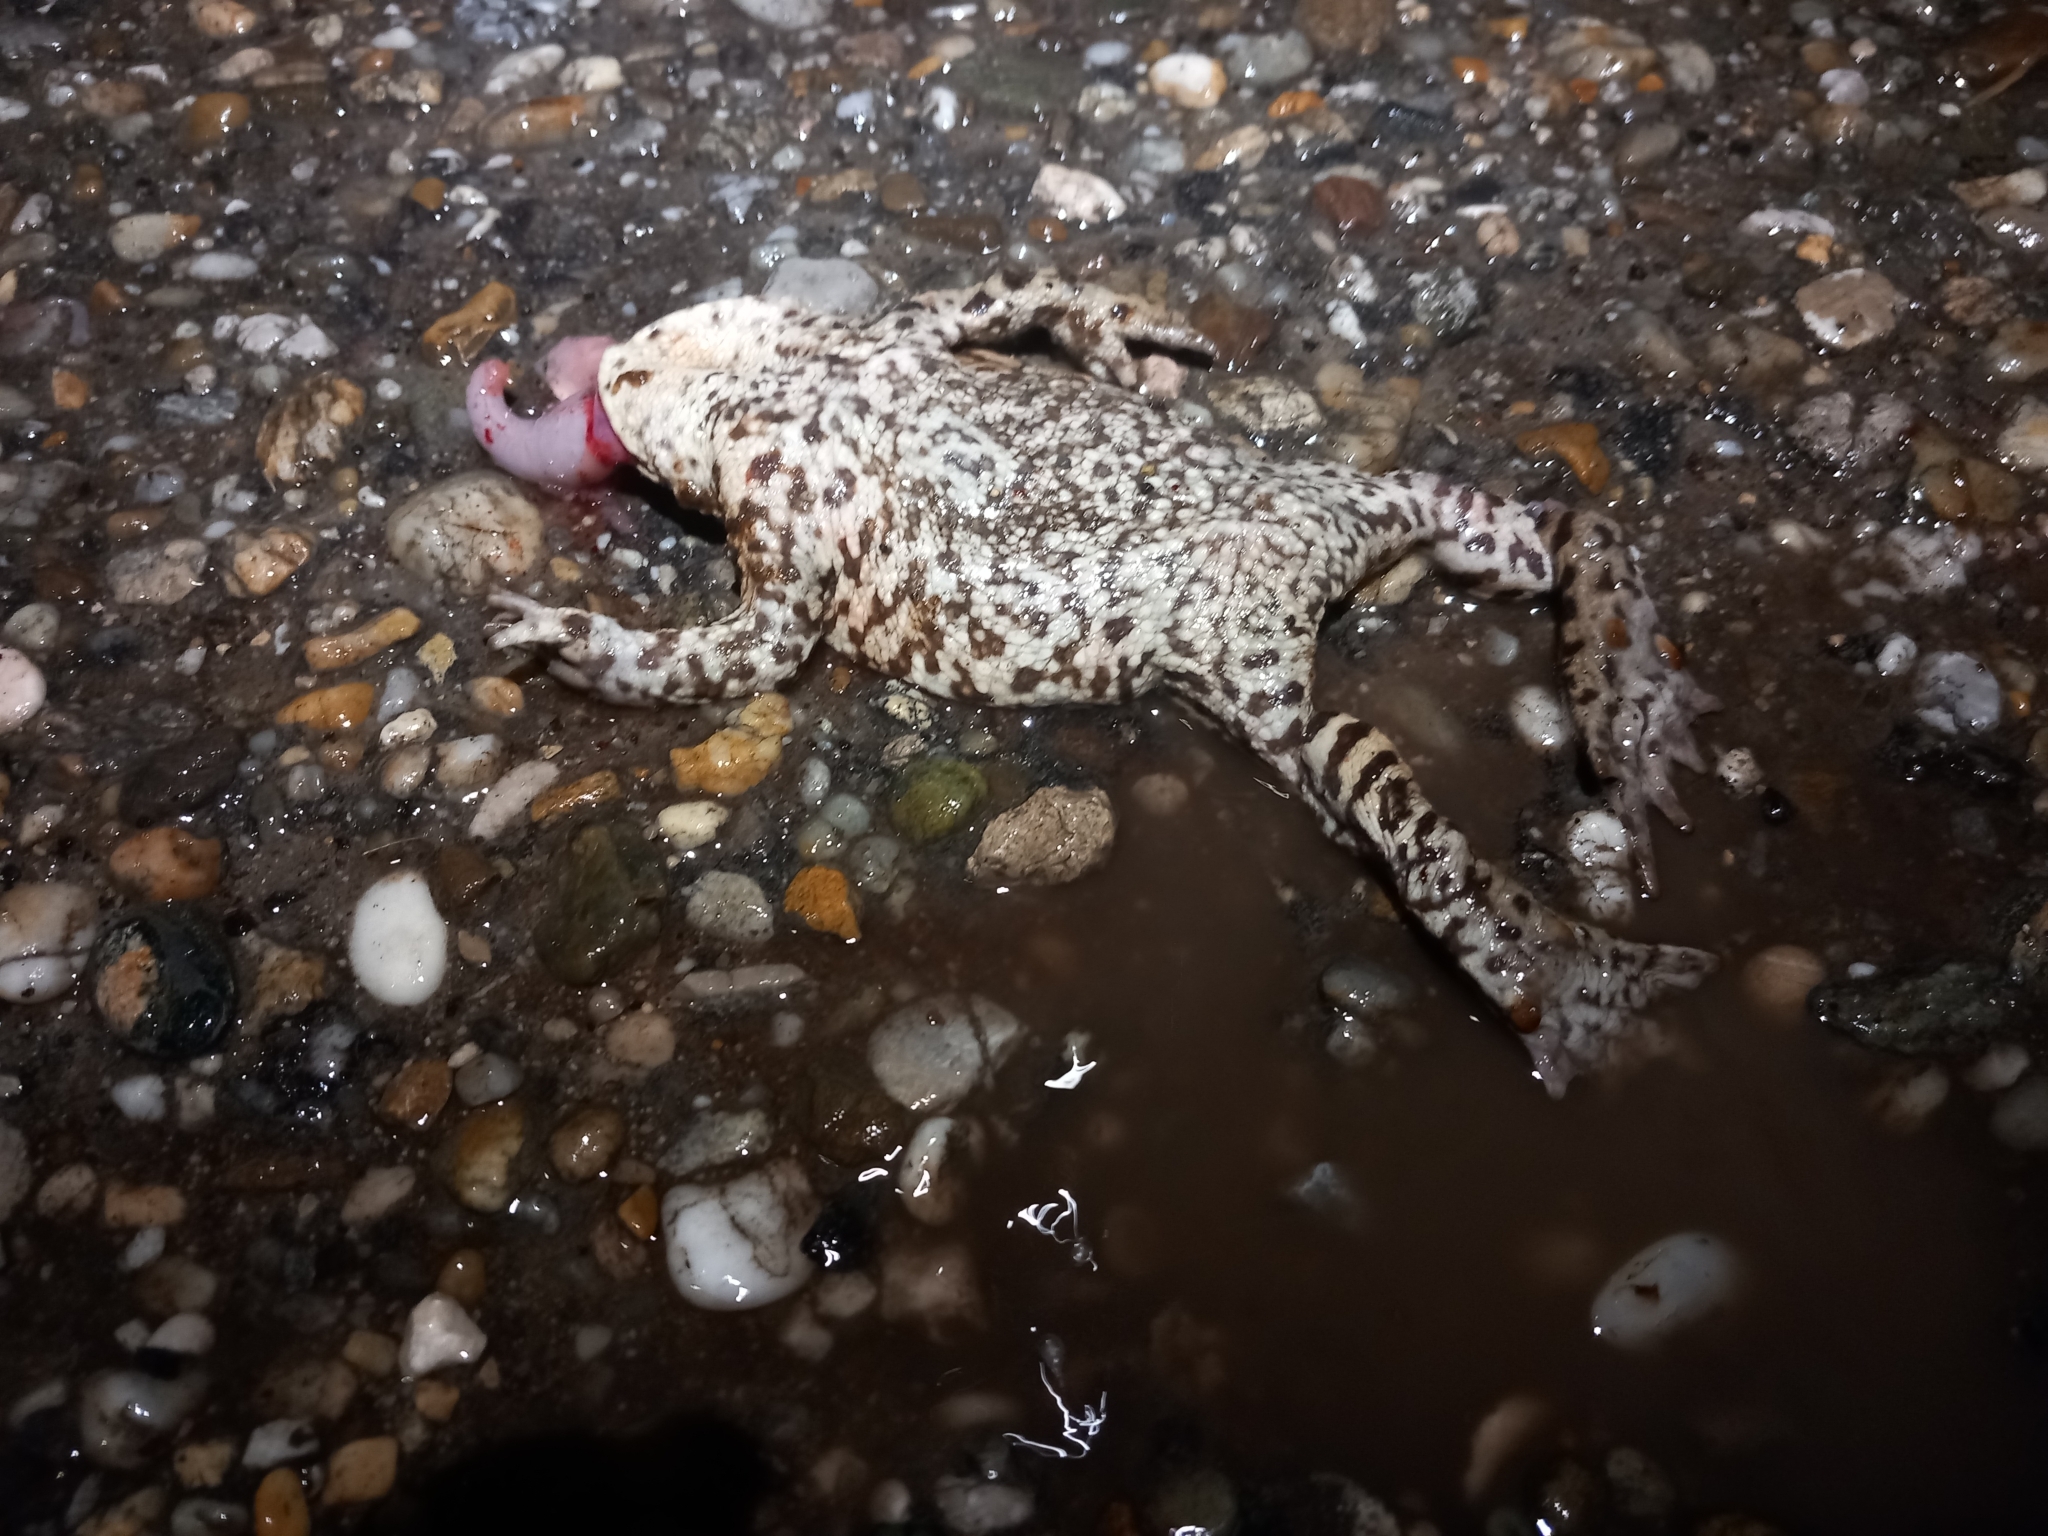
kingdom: Animalia
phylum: Chordata
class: Amphibia
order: Anura
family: Bufonidae
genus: Bufo
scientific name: Bufo bufo
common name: Common toad
